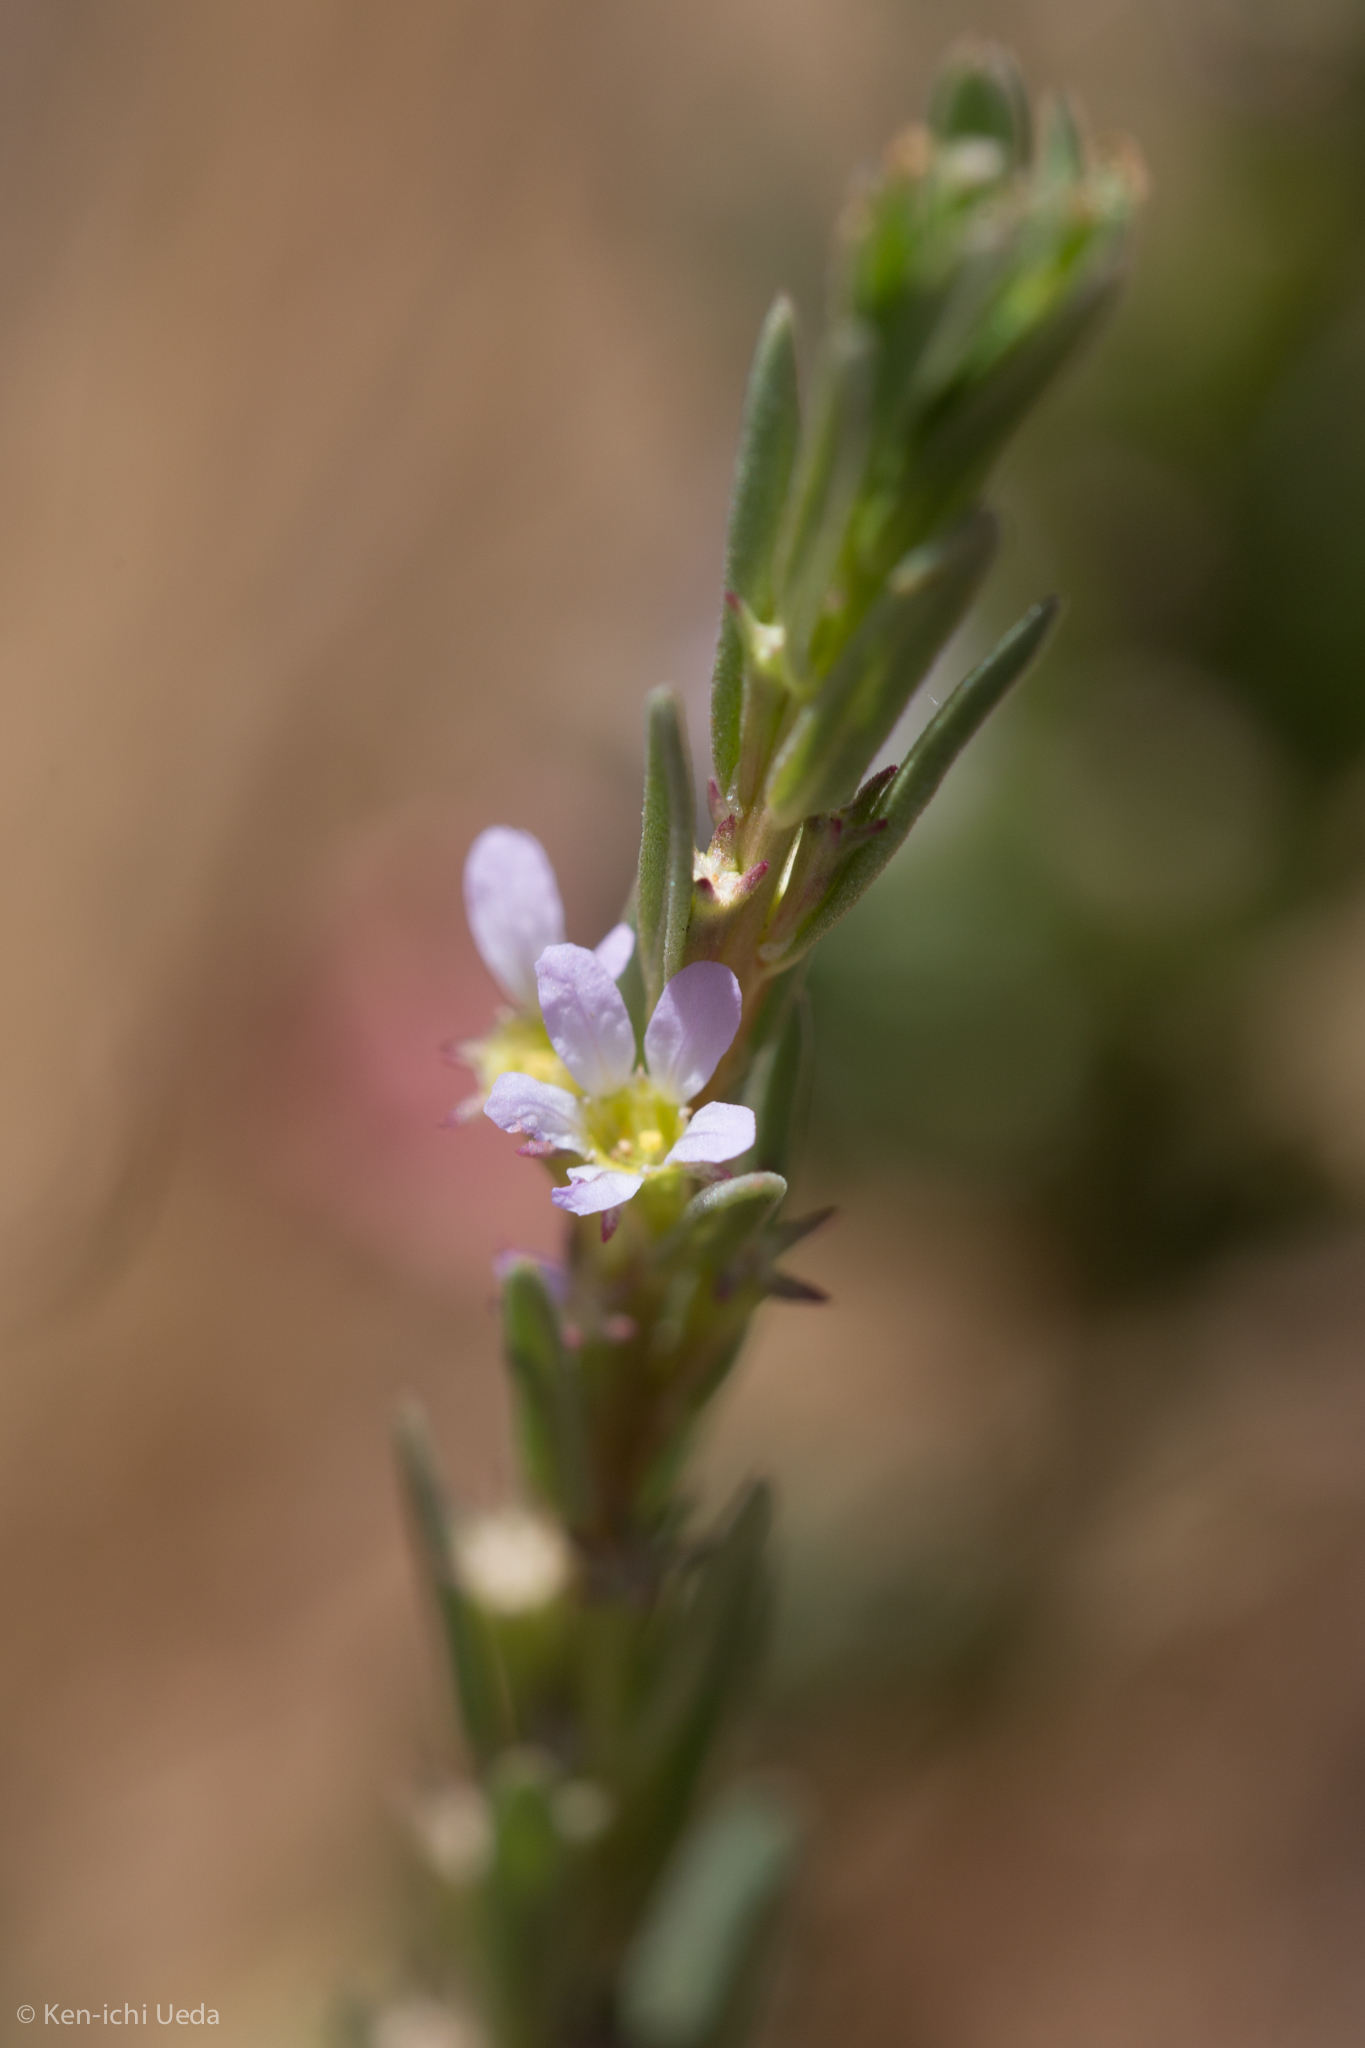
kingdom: Plantae
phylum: Tracheophyta
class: Magnoliopsida
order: Myrtales
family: Lythraceae
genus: Lythrum
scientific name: Lythrum hyssopifolia
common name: Grass-poly
